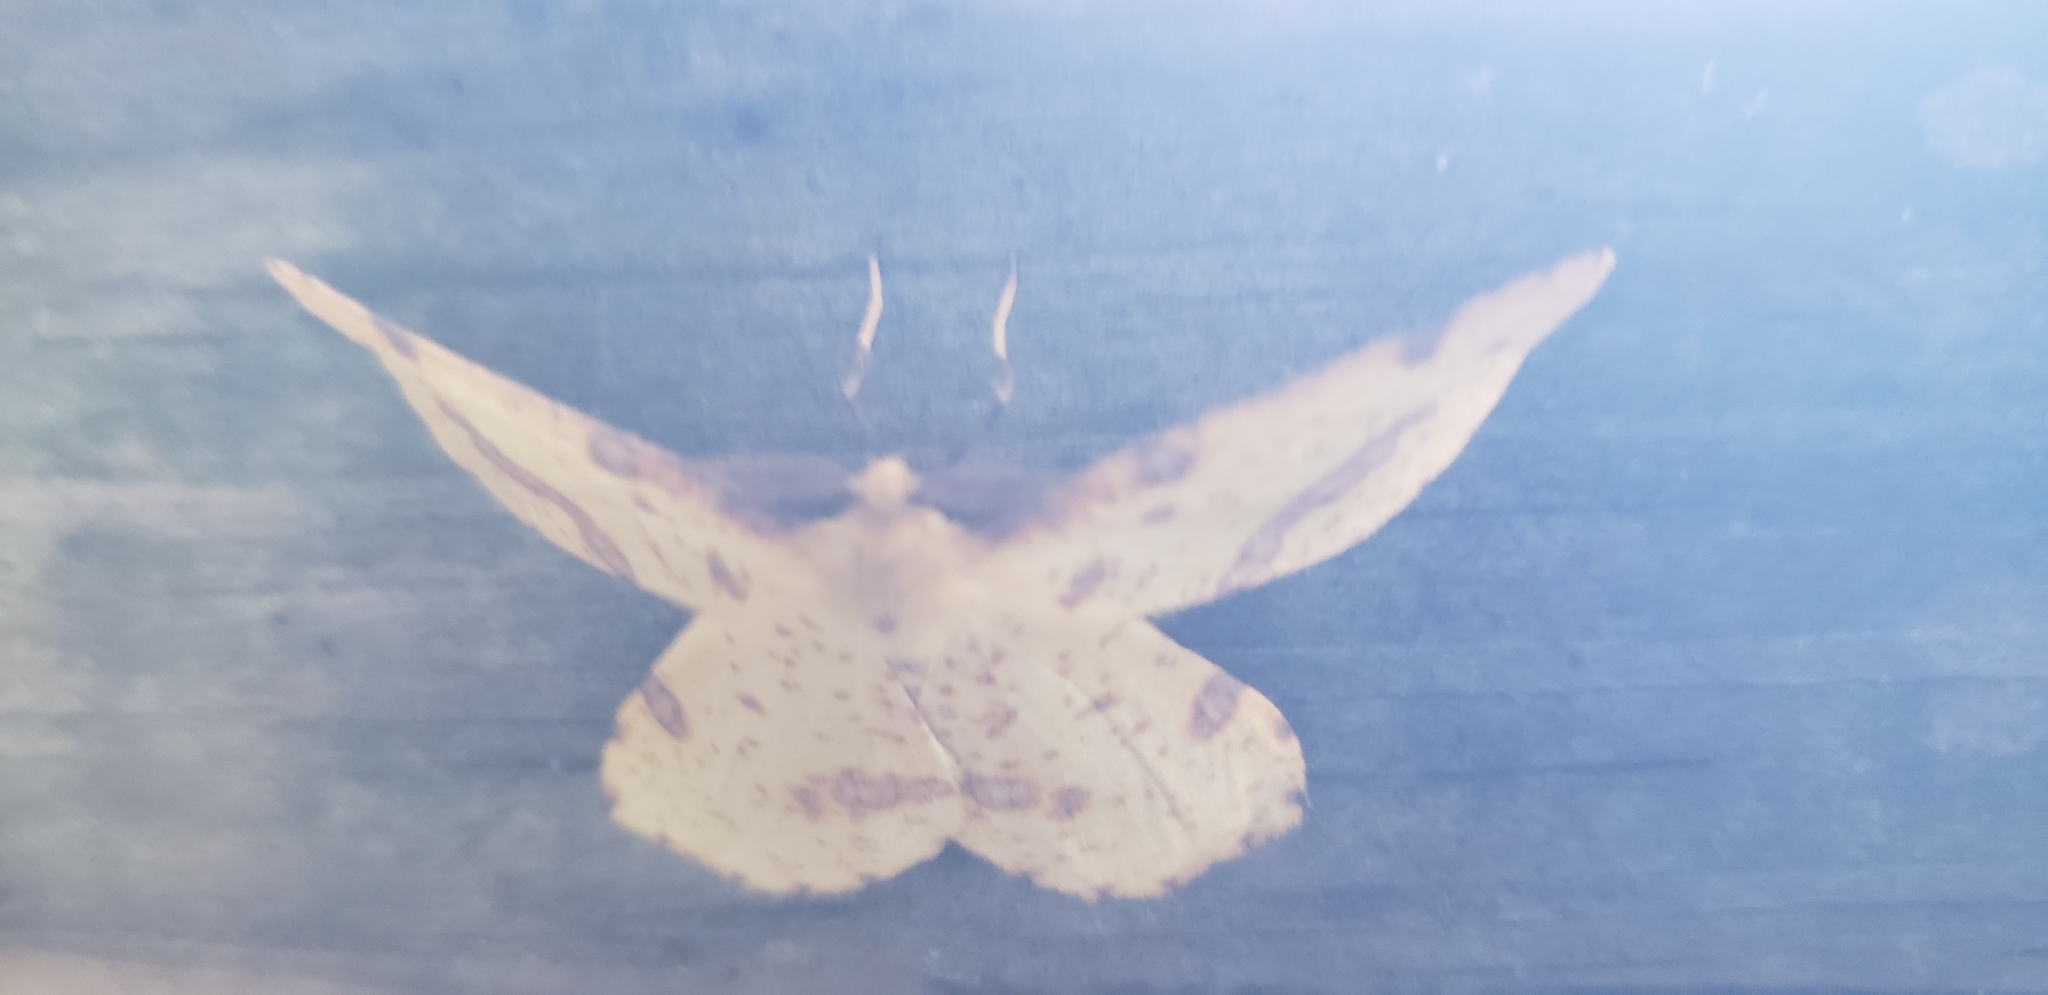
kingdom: Animalia
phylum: Arthropoda
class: Insecta
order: Lepidoptera
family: Geometridae
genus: Xanthotype
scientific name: Xanthotype
